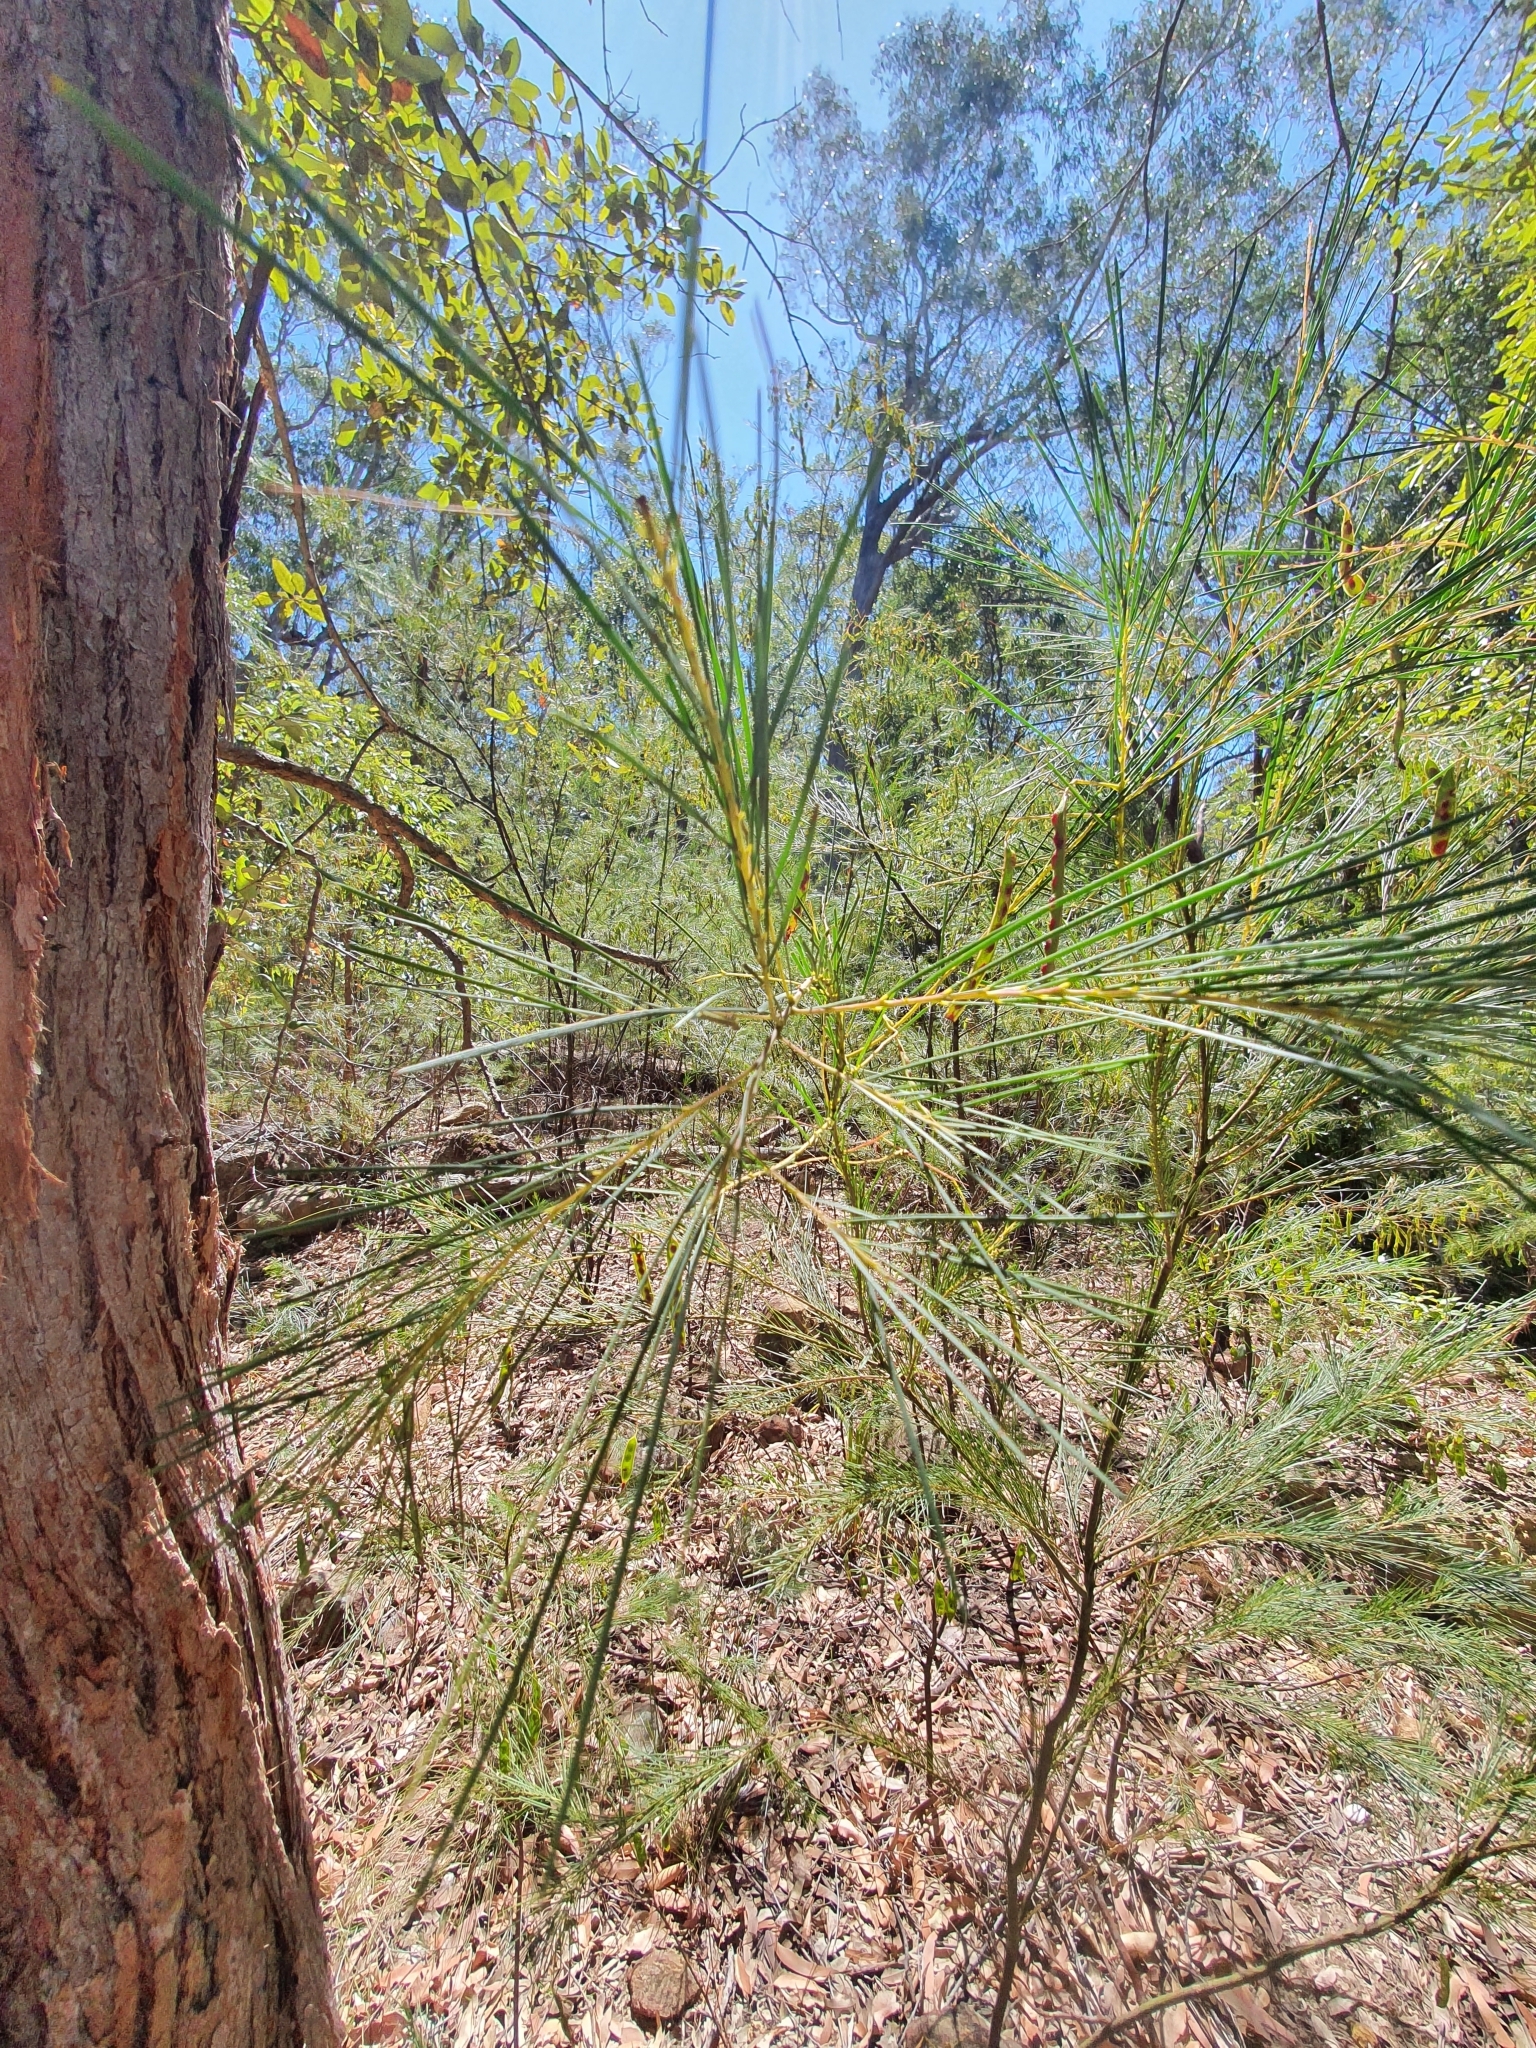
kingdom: Plantae
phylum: Tracheophyta
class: Magnoliopsida
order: Fabales
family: Fabaceae
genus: Acacia
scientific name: Acacia linifolia
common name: White wattle
